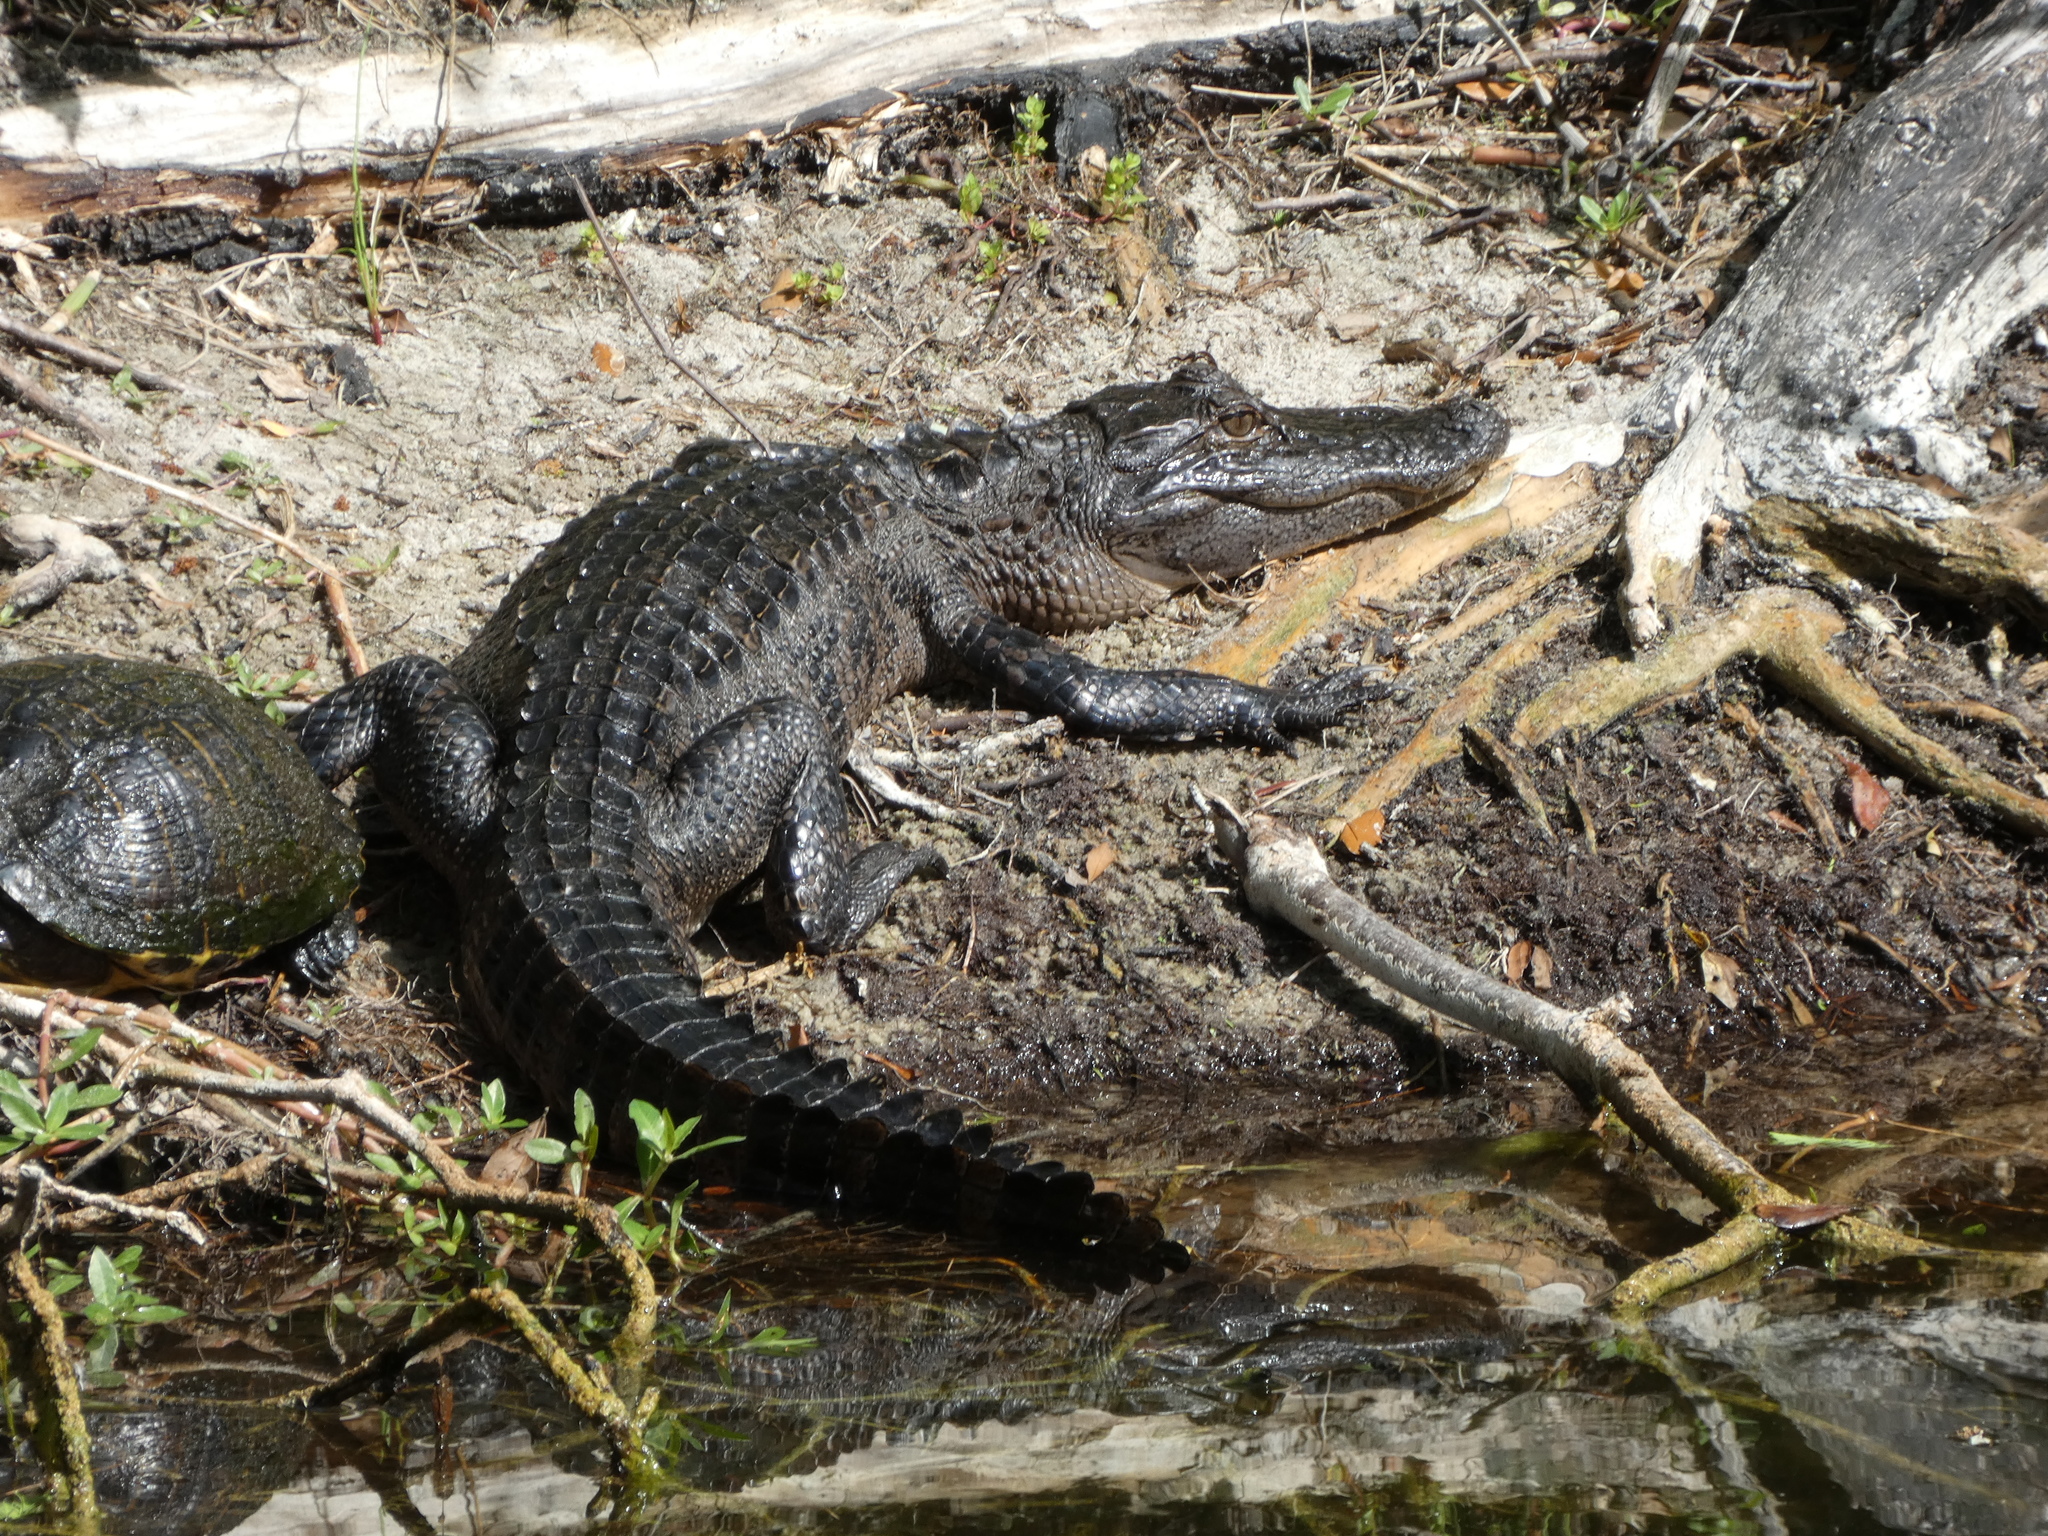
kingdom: Animalia
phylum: Chordata
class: Crocodylia
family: Alligatoridae
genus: Alligator
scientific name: Alligator mississippiensis
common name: American alligator
